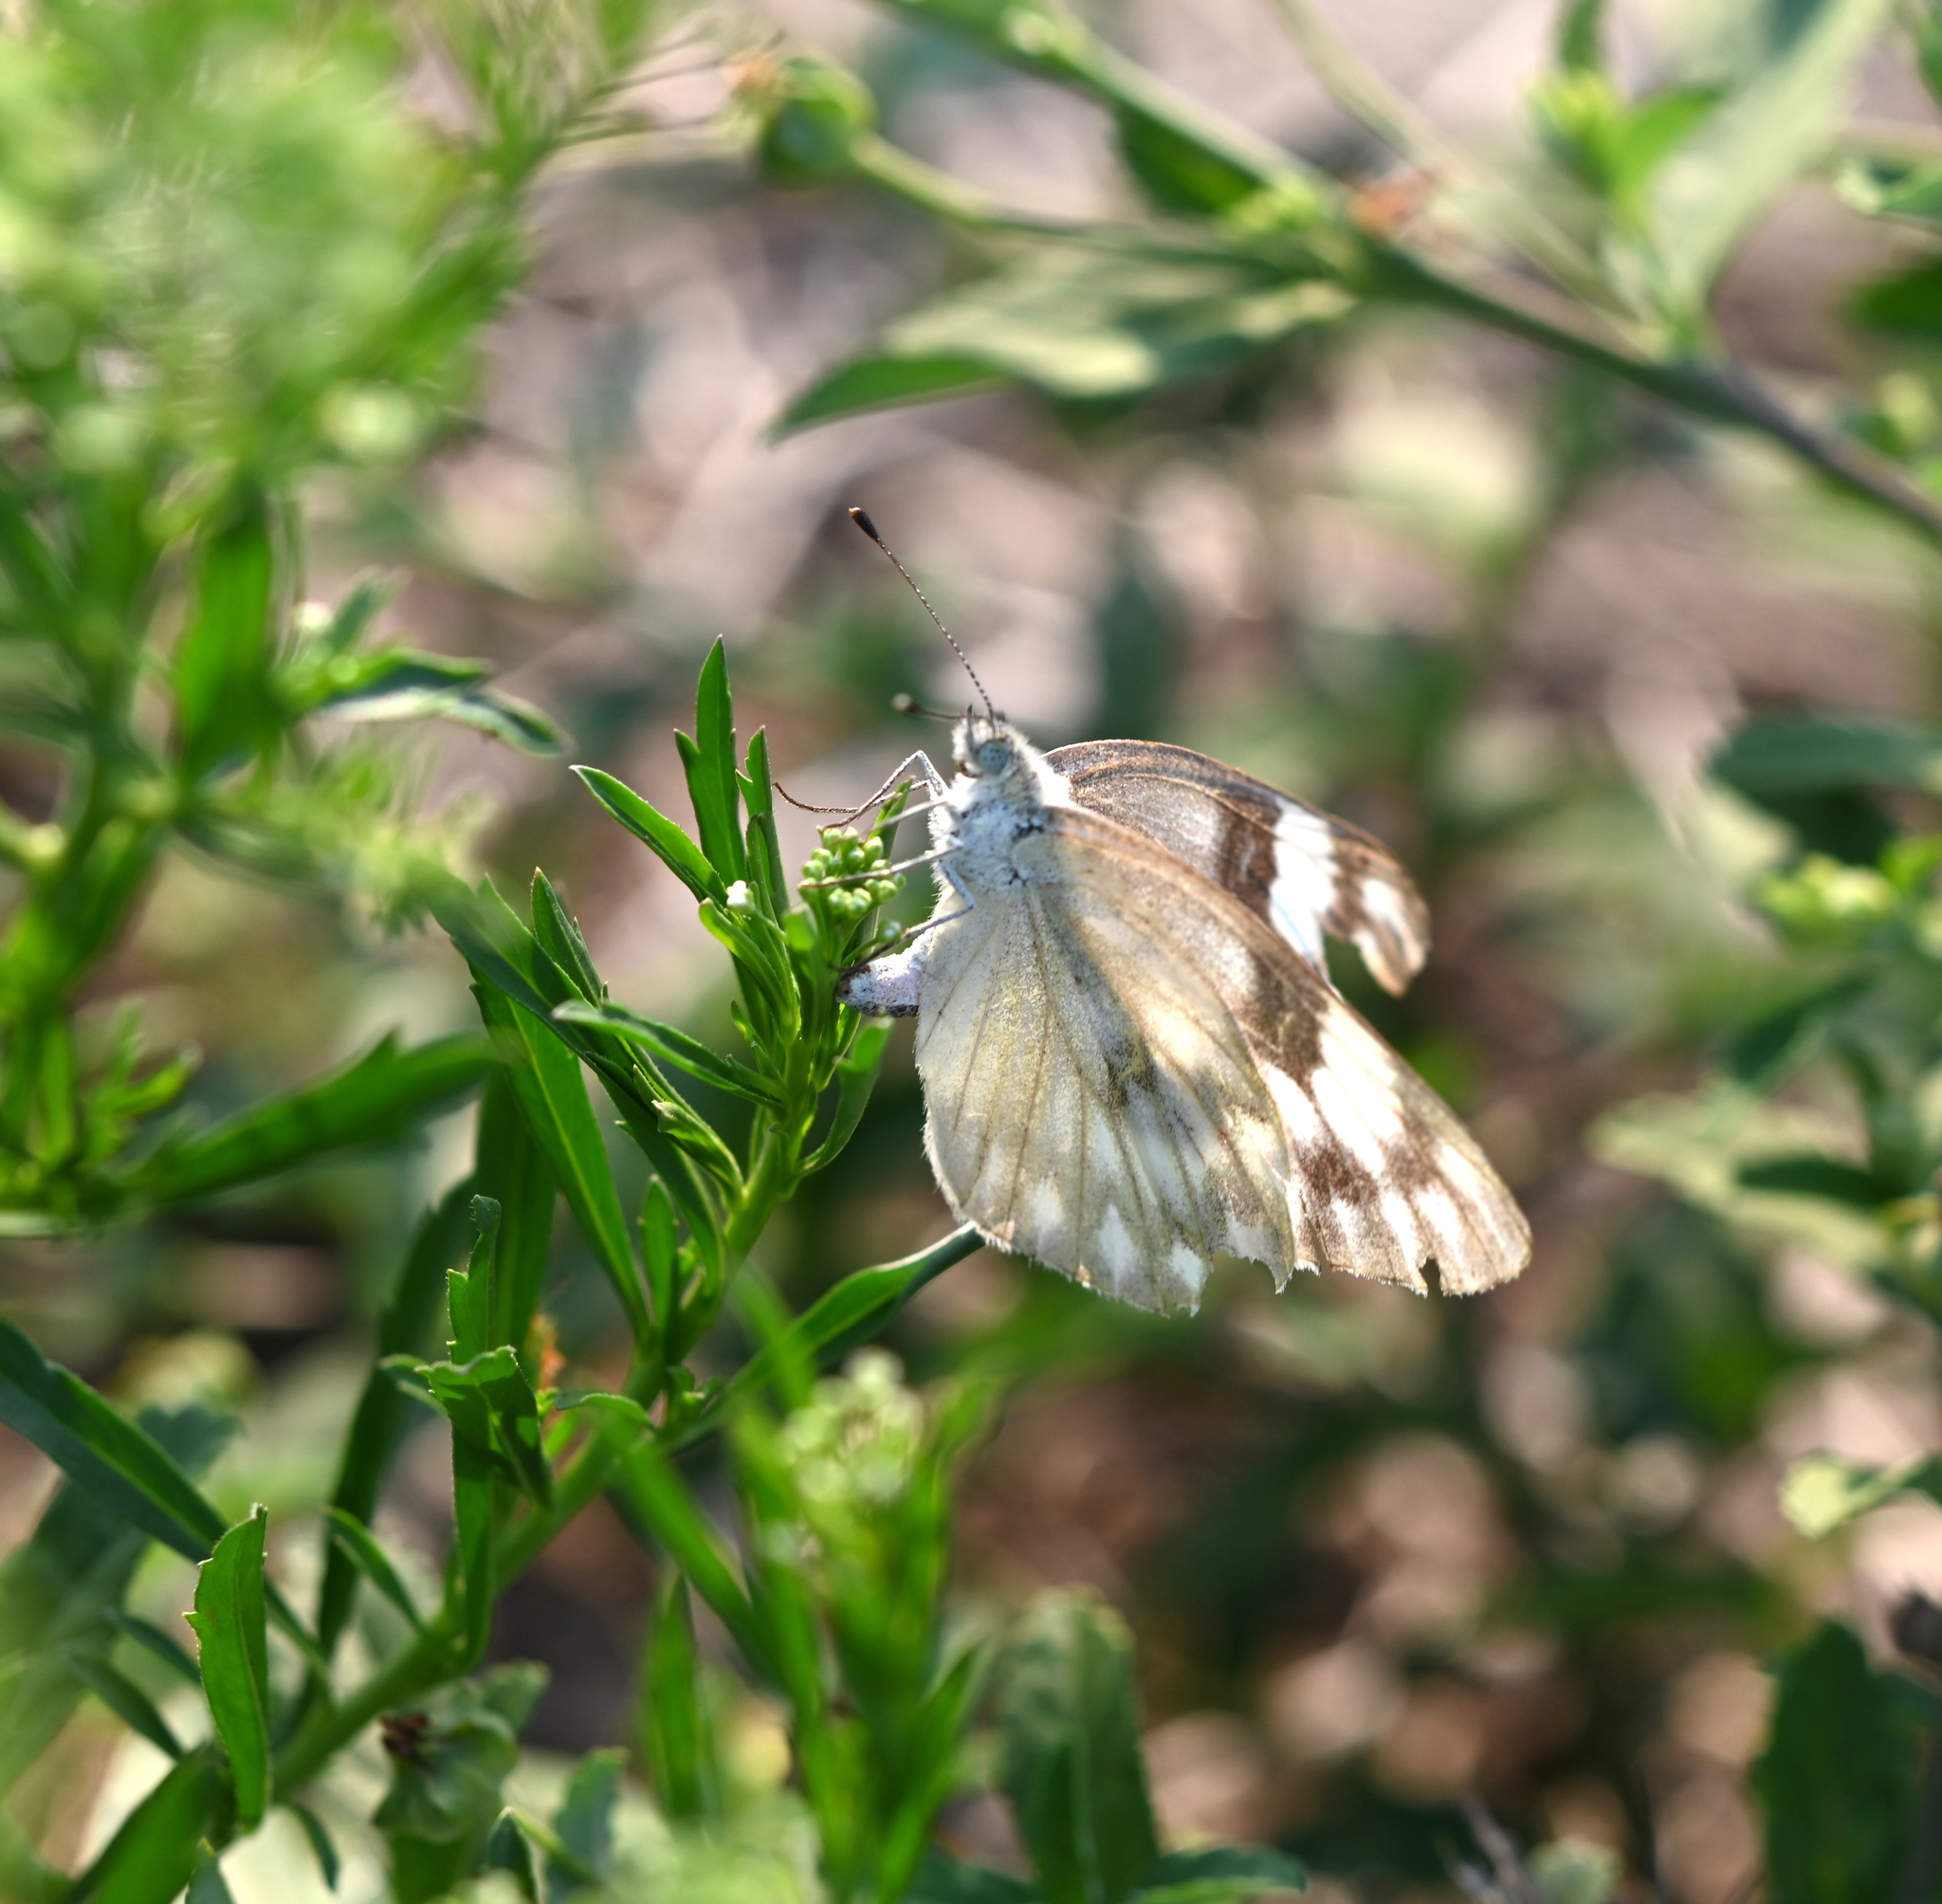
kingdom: Animalia
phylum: Arthropoda
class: Insecta
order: Lepidoptera
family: Pieridae
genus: Pontia
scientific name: Pontia protodice
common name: Checkered white
